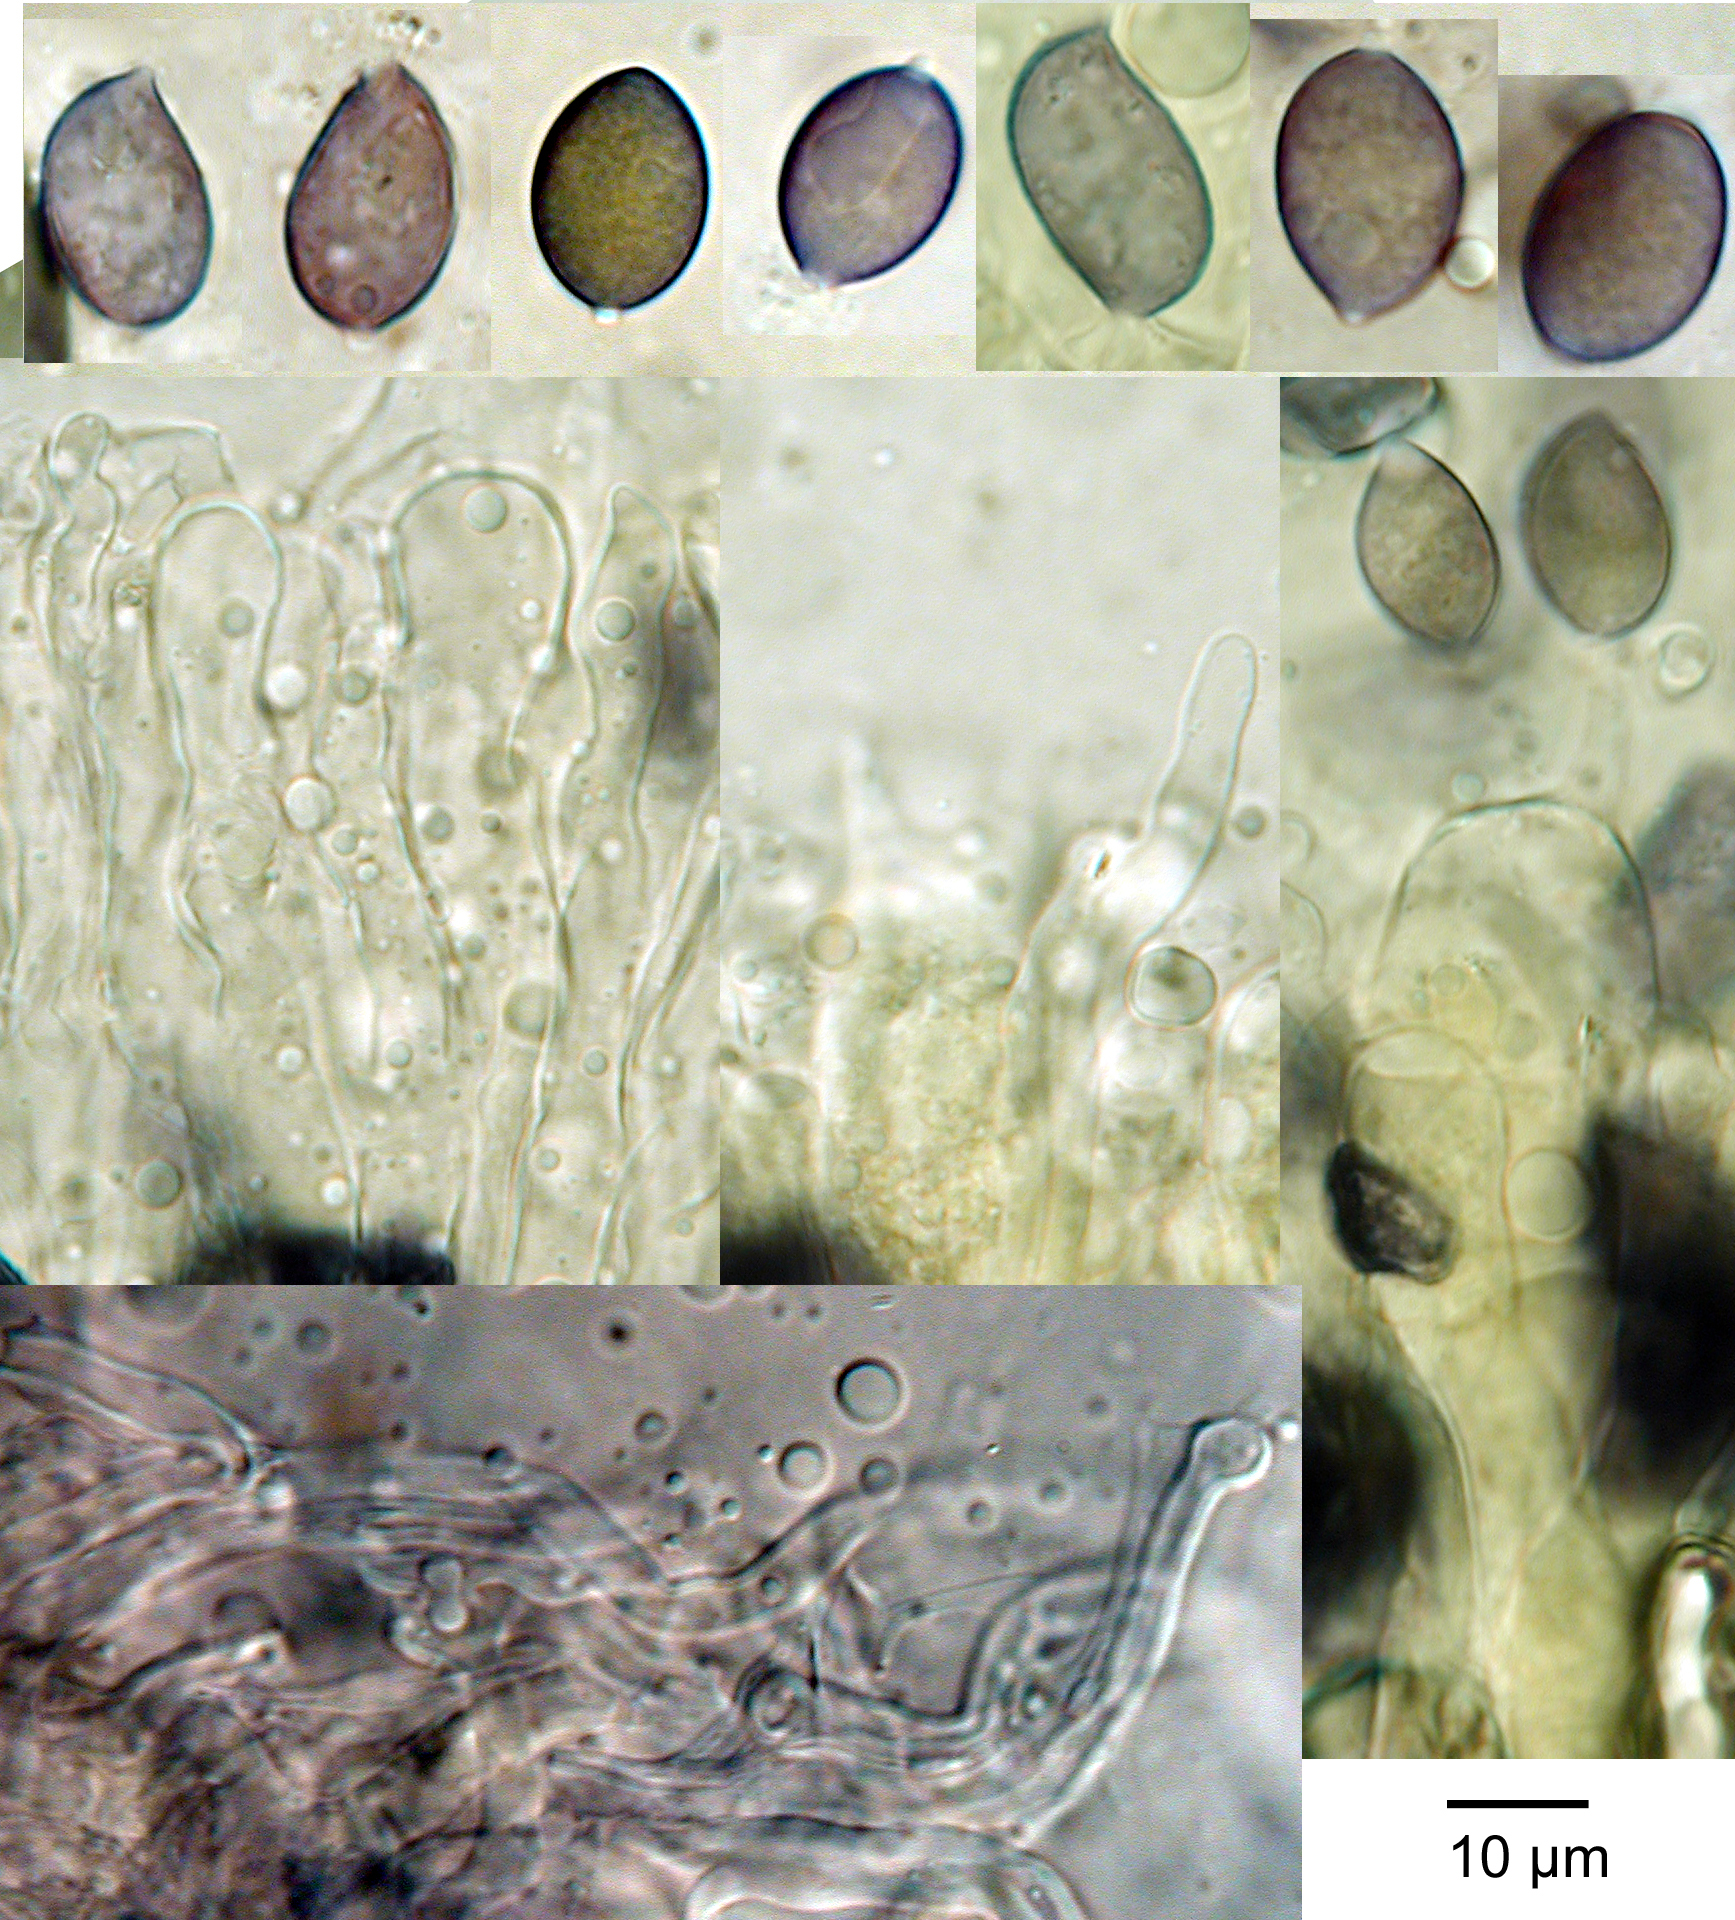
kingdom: Fungi
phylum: Basidiomycota
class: Agaricomycetes
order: Russulales
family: Stereaceae
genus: Stereodiscus
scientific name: Stereodiscus limonisporus
